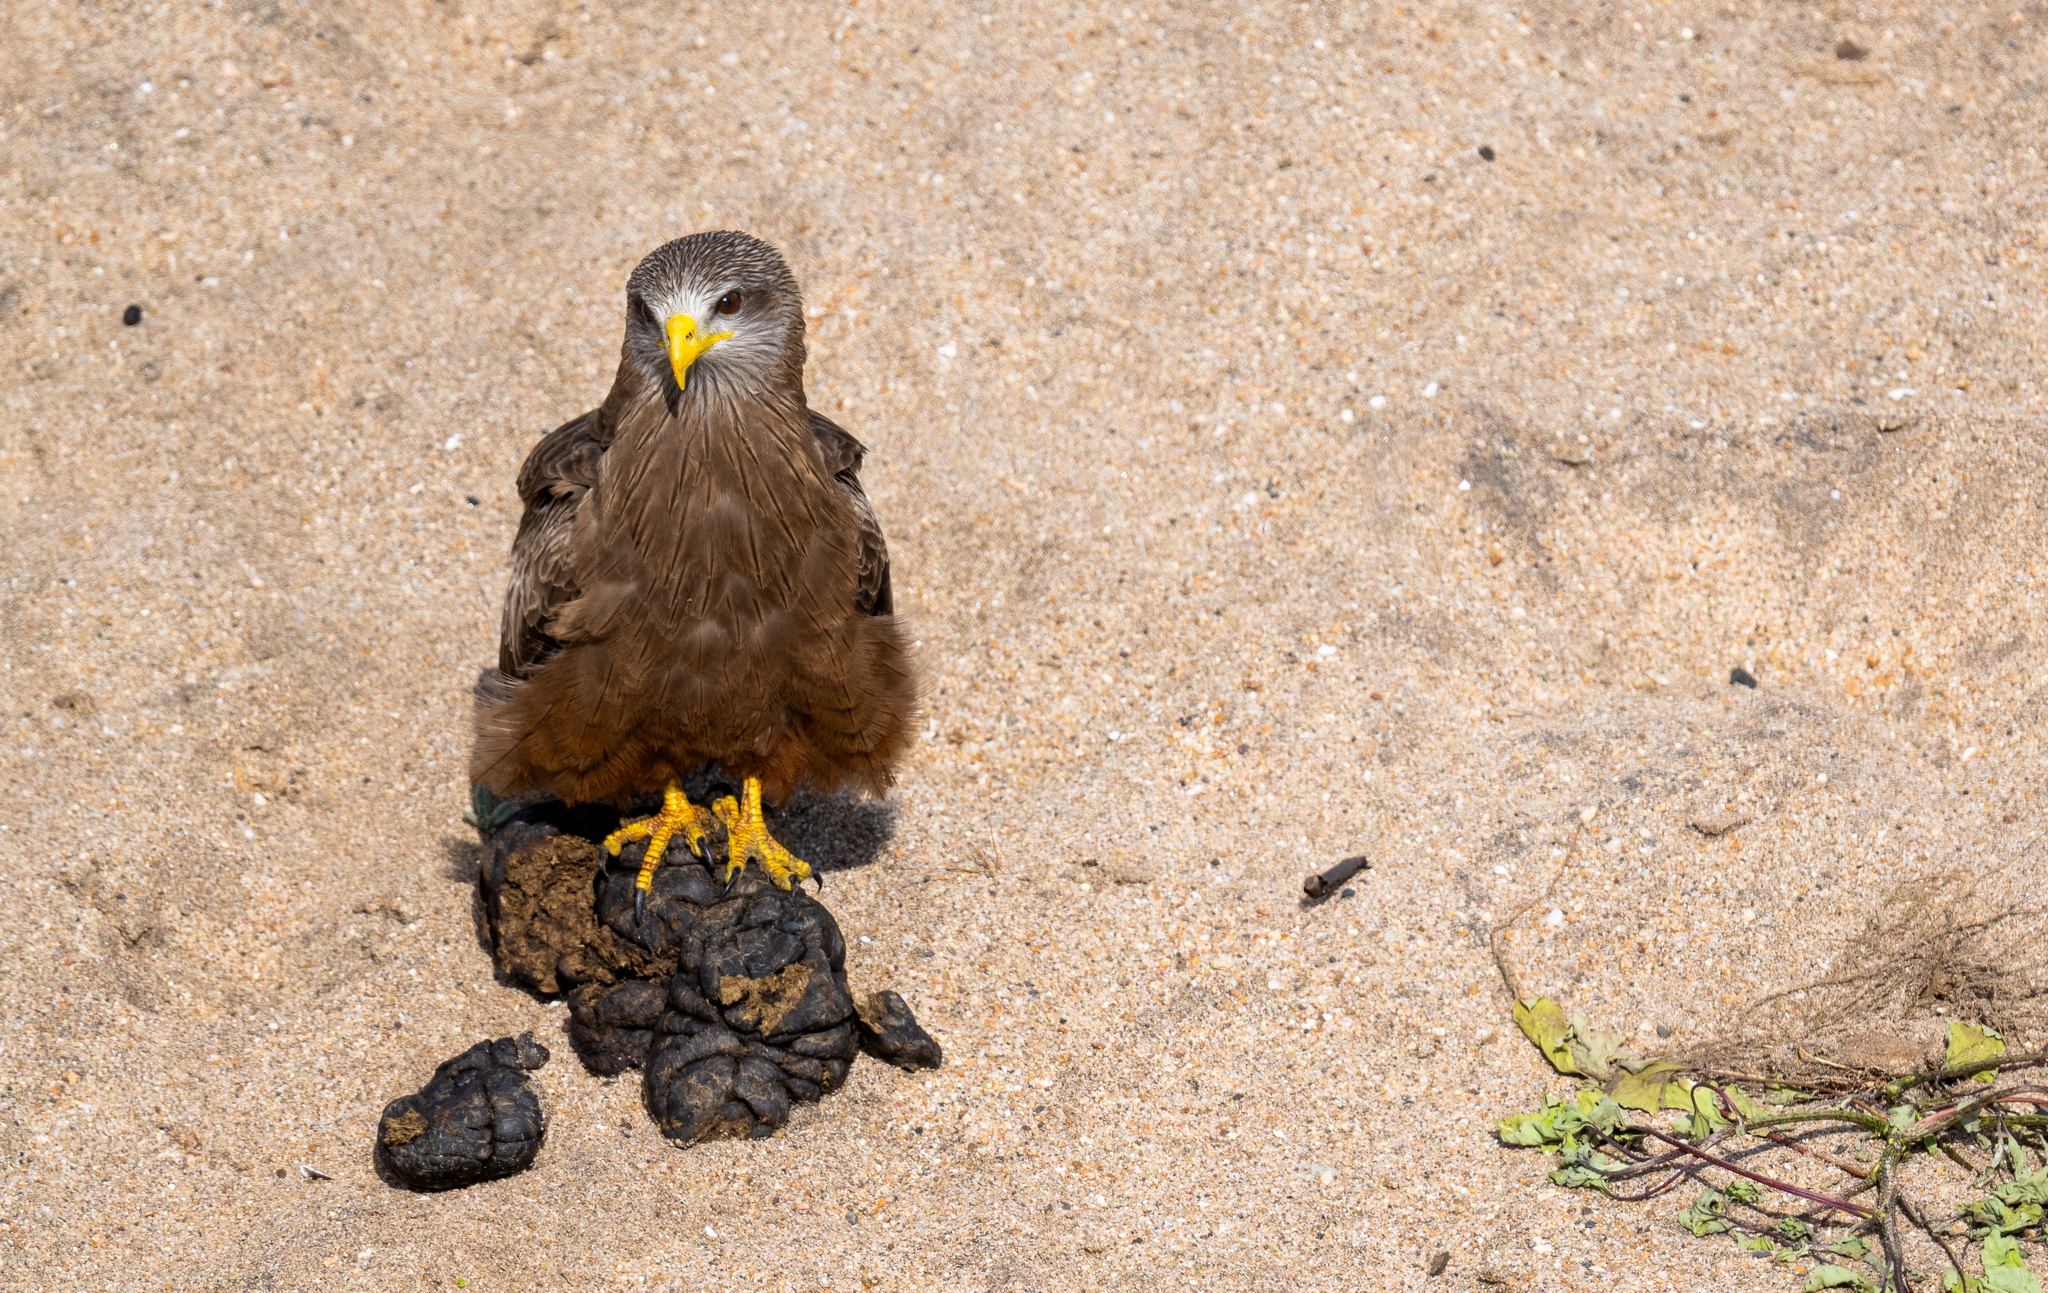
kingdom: Animalia
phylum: Chordata
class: Aves
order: Accipitriformes
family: Accipitridae
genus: Milvus
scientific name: Milvus migrans
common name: Black kite
